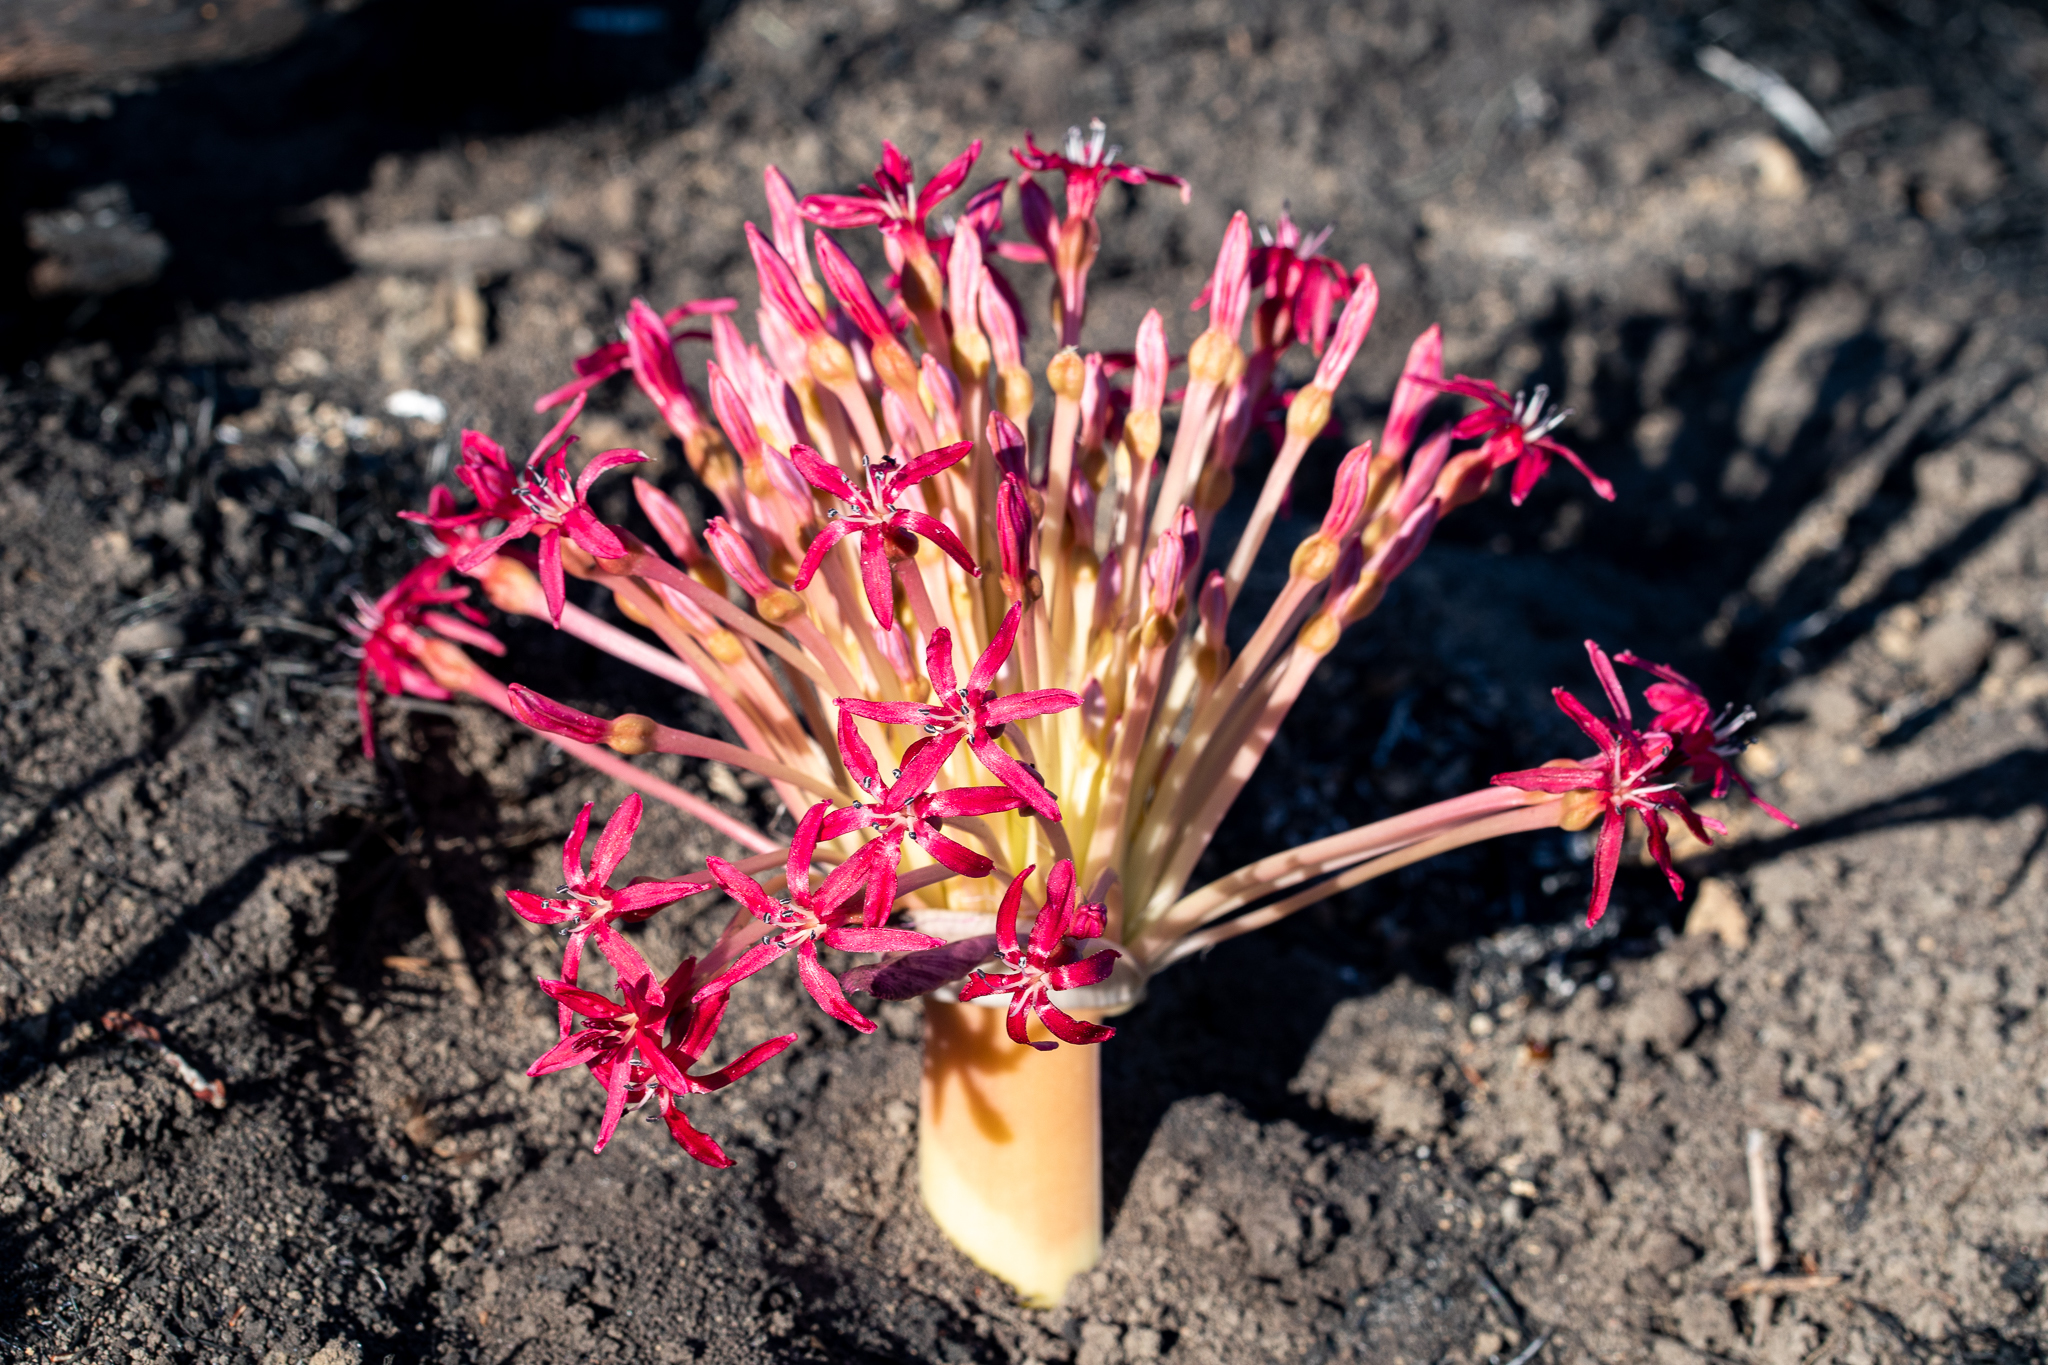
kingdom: Plantae
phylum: Tracheophyta
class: Liliopsida
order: Asparagales
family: Amaryllidaceae
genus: Boophone
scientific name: Boophone disticha
